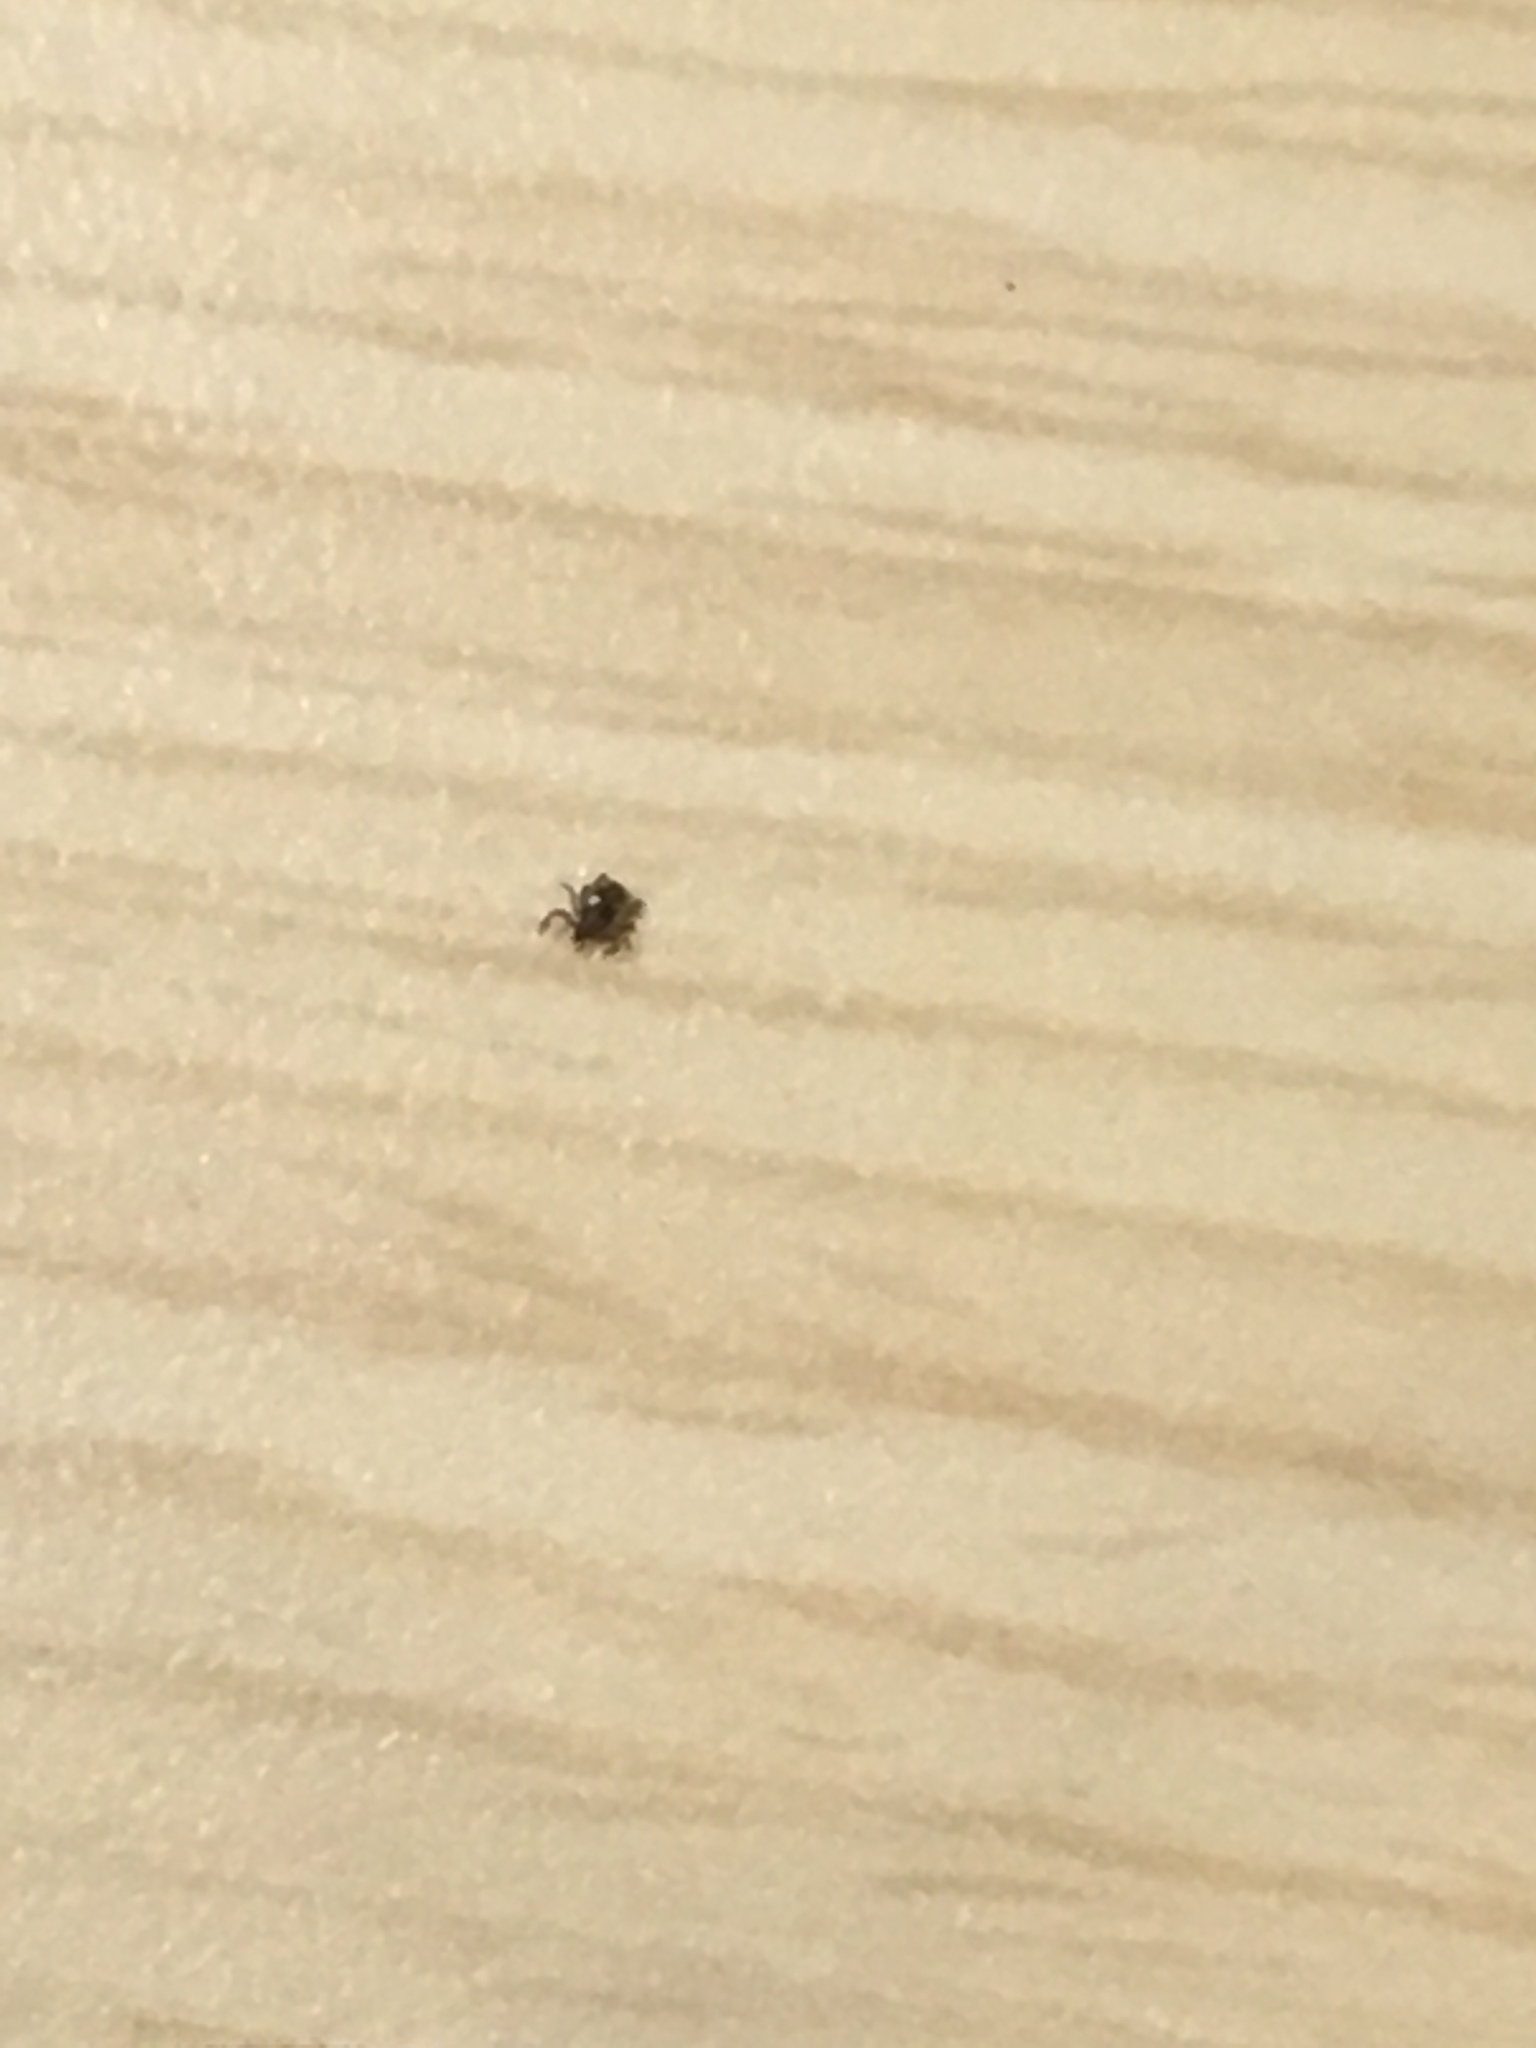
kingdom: Animalia
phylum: Arthropoda
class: Arachnida
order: Ixodida
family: Ixodidae
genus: Ixodes
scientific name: Ixodes scapularis
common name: Black legged tick
